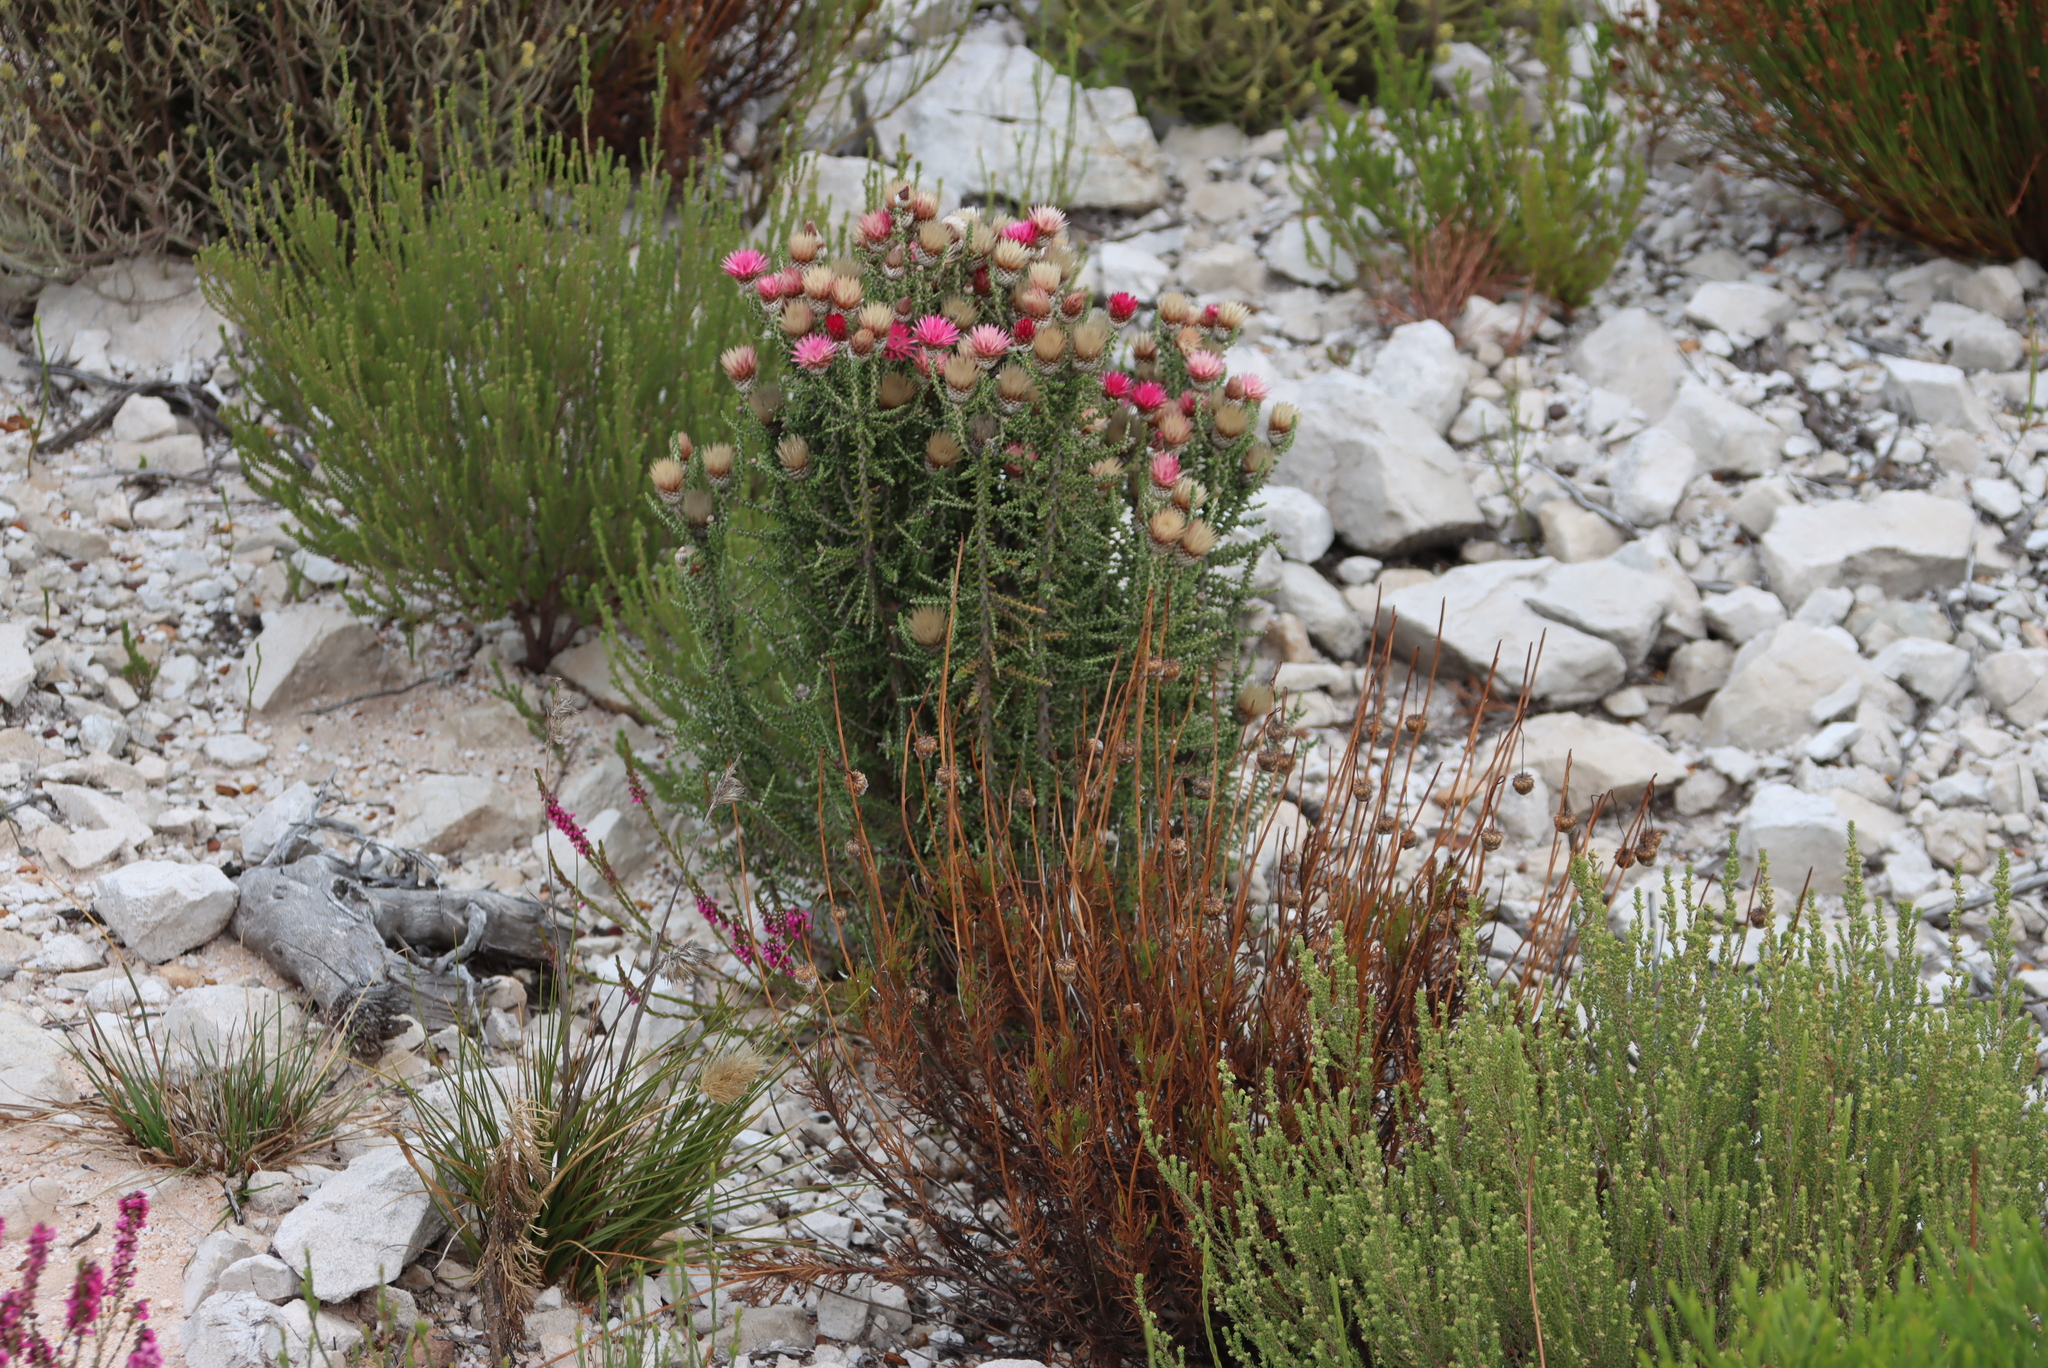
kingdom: Plantae
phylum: Tracheophyta
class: Magnoliopsida
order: Asterales
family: Asteraceae
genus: Phaenocoma
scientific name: Phaenocoma prolifera
